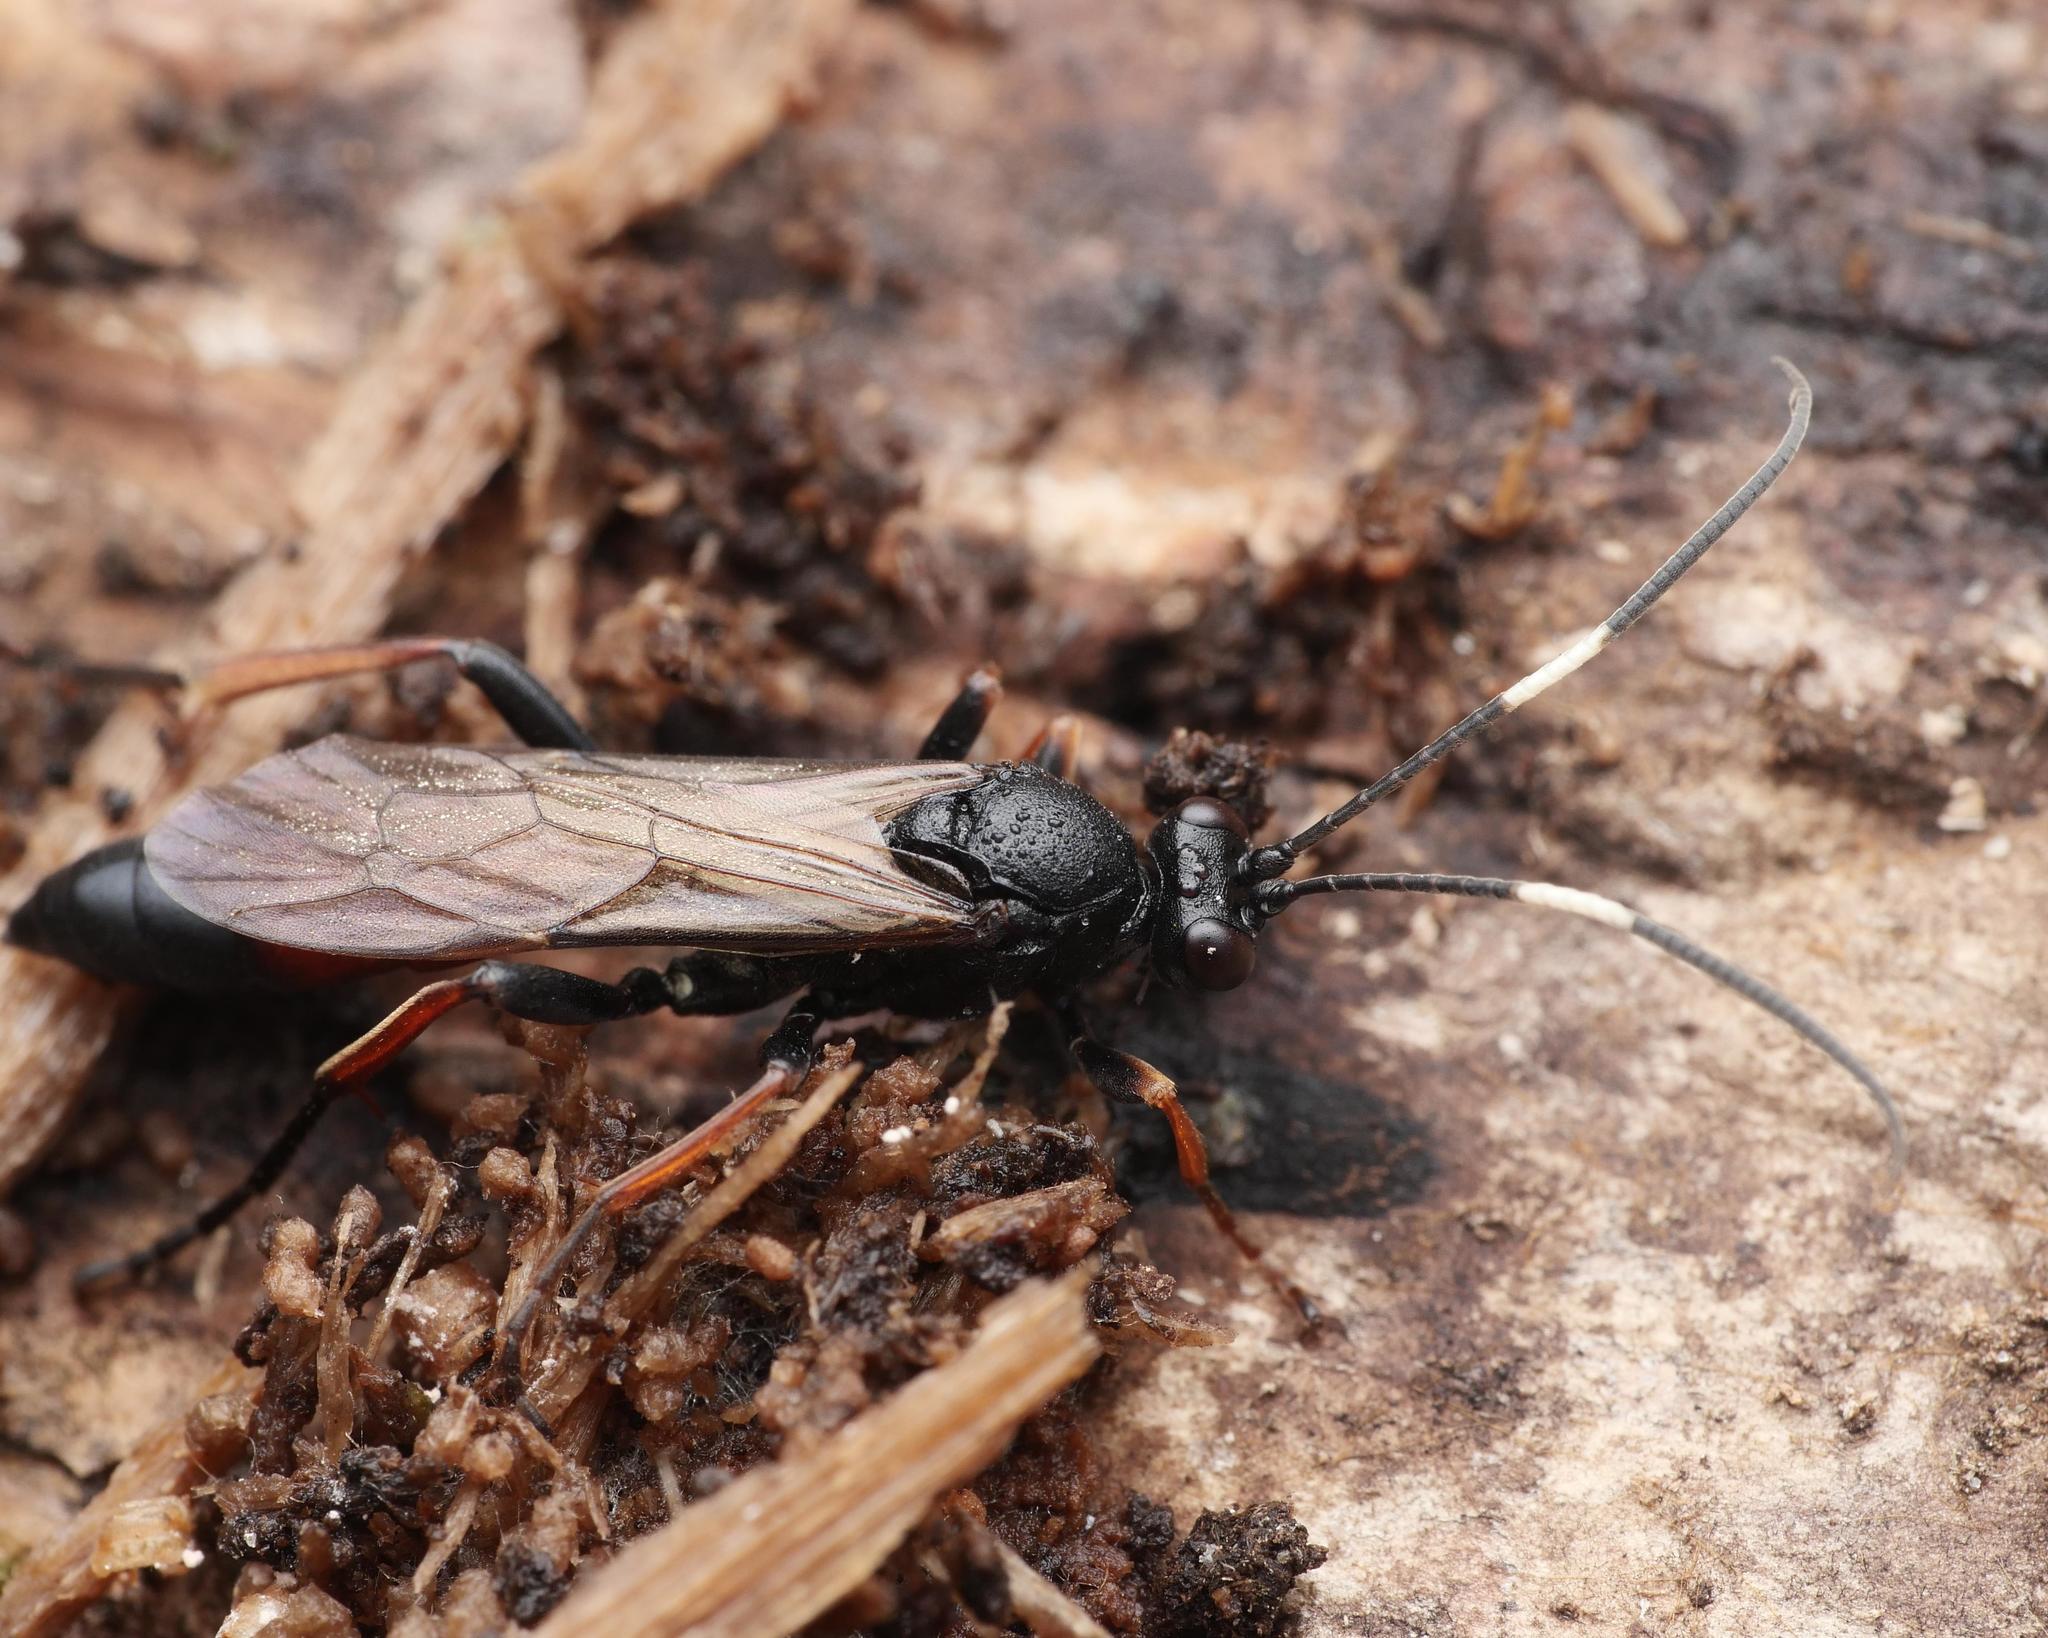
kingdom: Animalia
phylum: Arthropoda
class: Insecta
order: Hymenoptera
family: Ichneumonidae
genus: Stenichneumon
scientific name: Stenichneumon culpator
